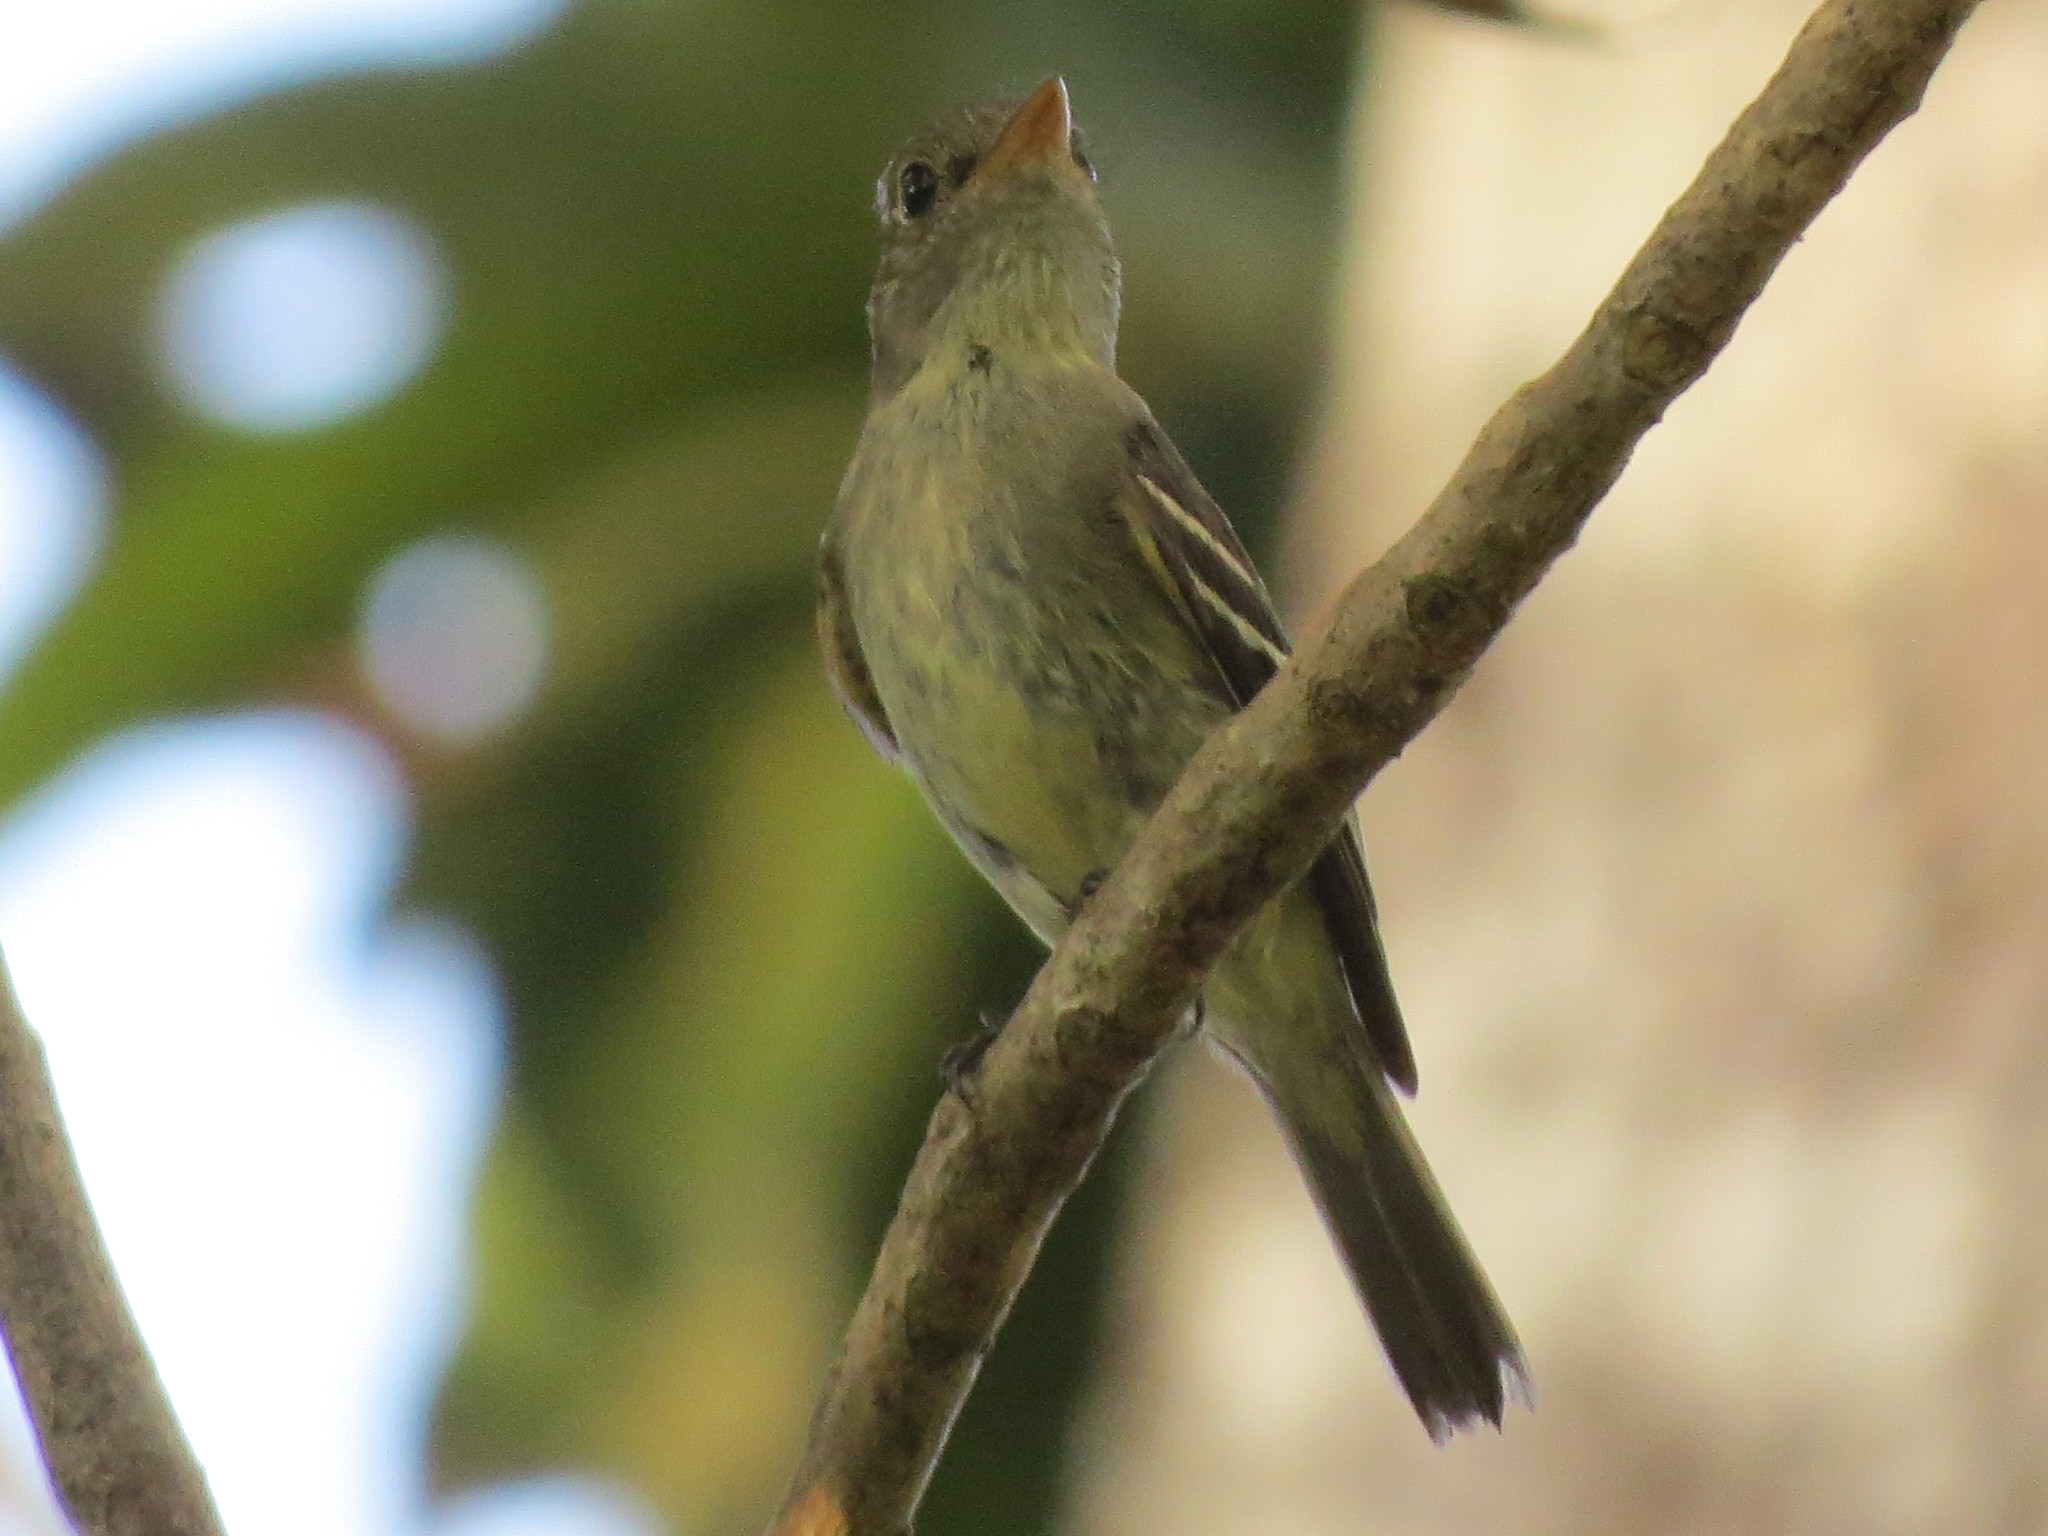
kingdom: Animalia
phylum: Chordata
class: Aves
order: Passeriformes
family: Tyrannidae
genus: Empidonax
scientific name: Empidonax flaviventris
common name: Yellow-bellied flycatcher
